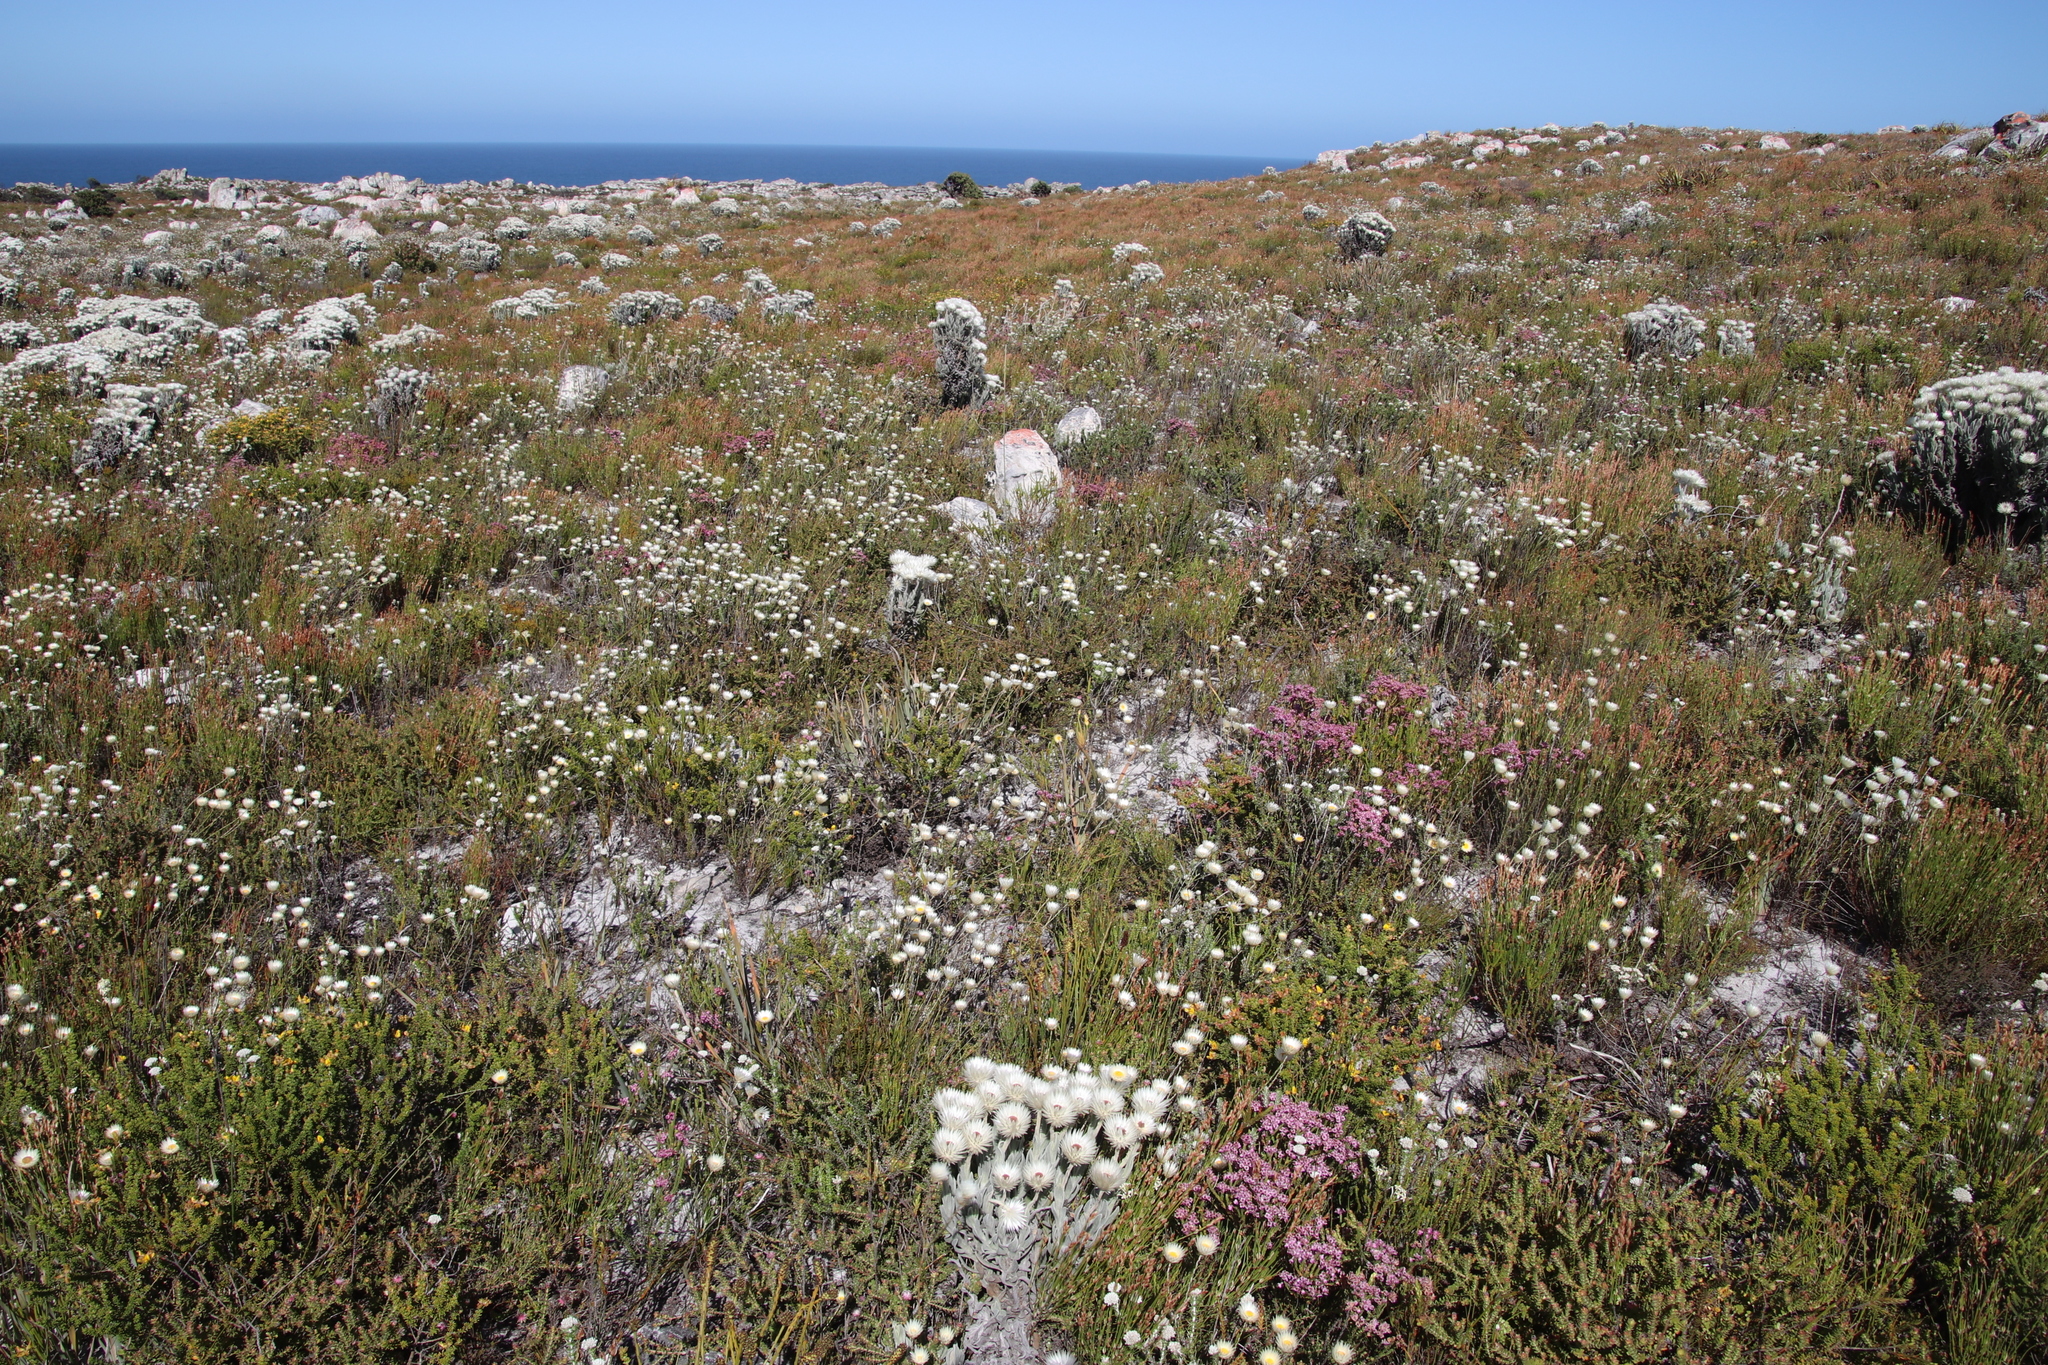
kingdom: Plantae
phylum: Tracheophyta
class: Magnoliopsida
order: Asterales
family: Asteraceae
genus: Edmondia
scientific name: Edmondia sesamoides
